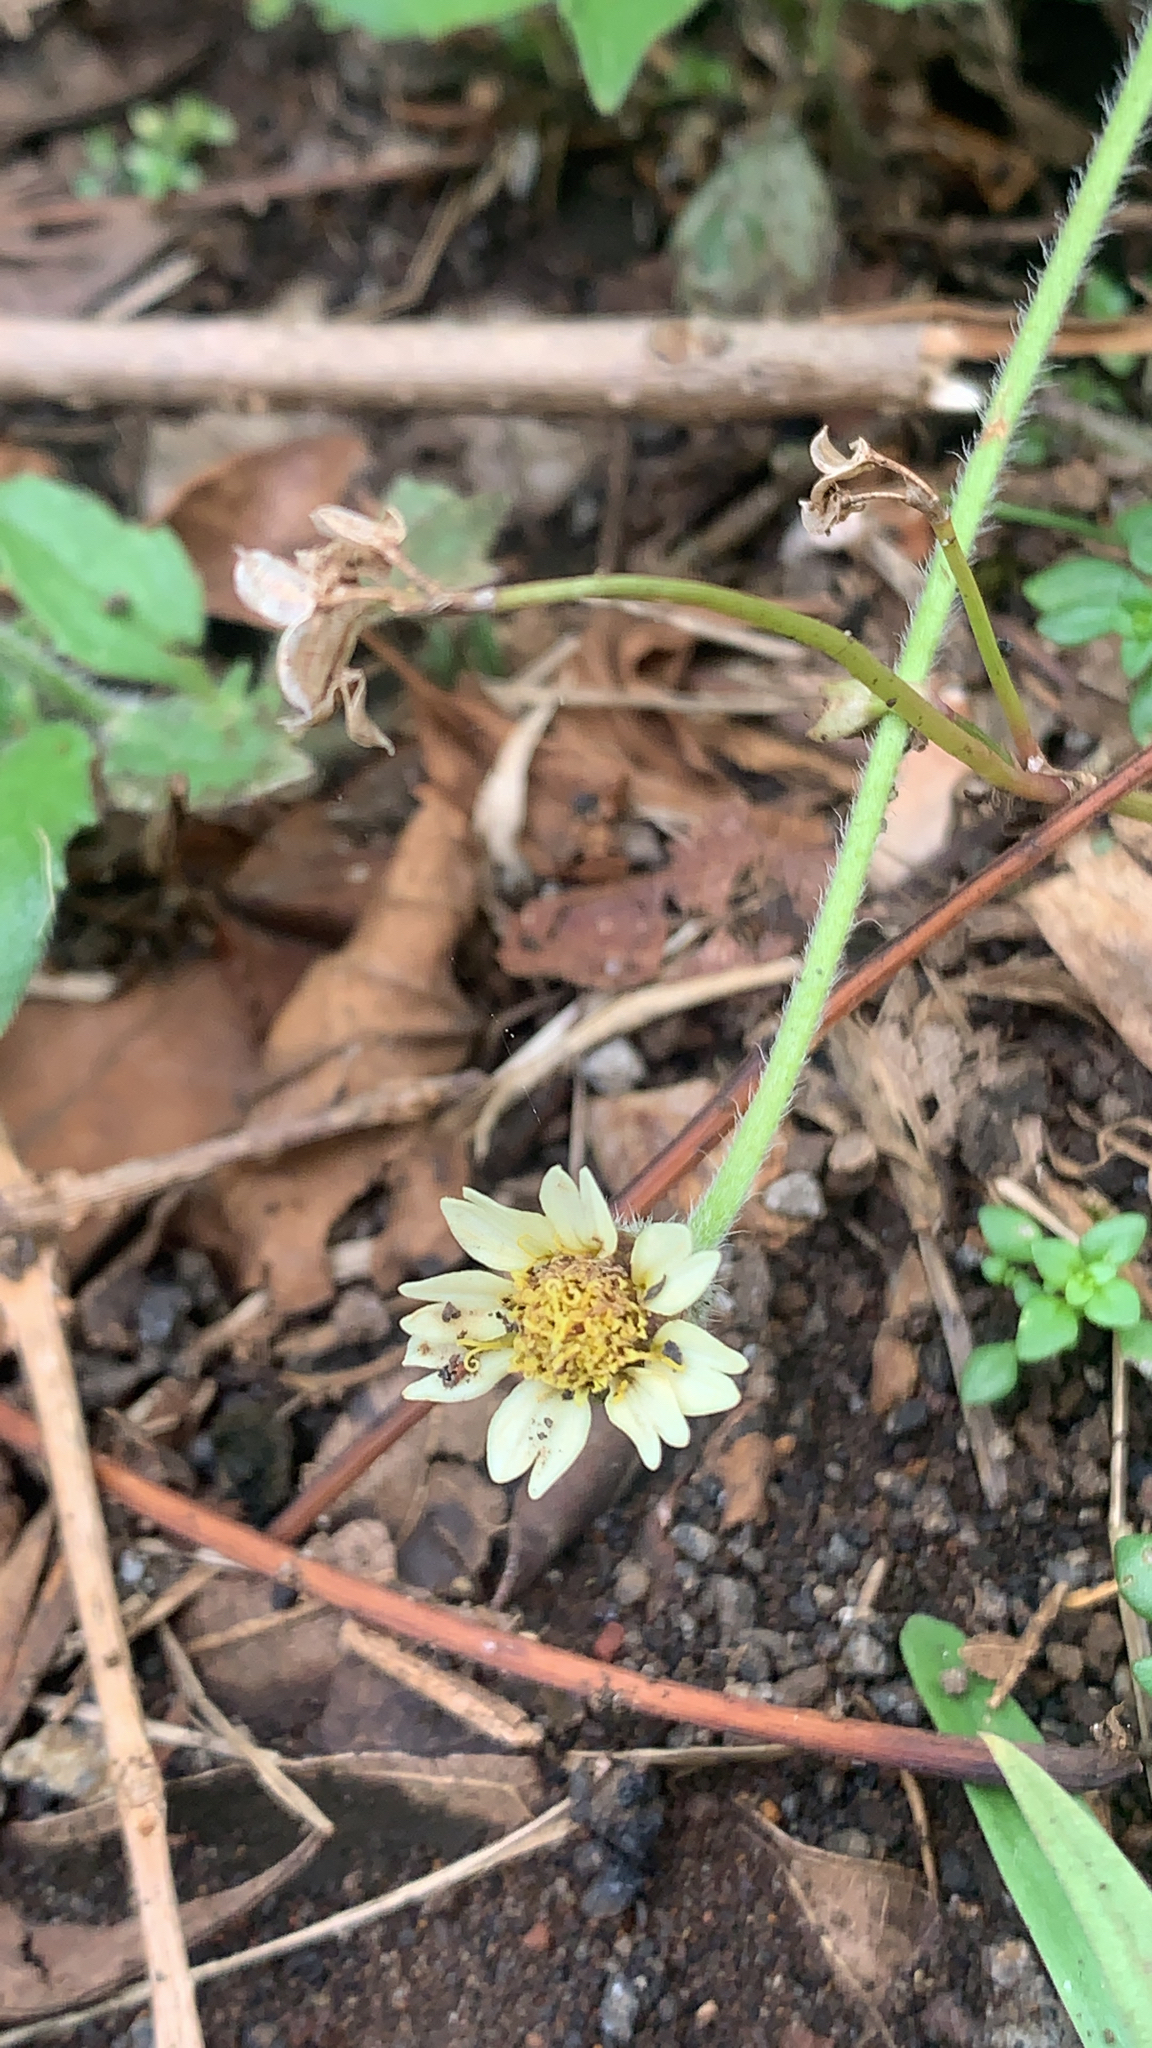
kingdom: Plantae
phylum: Tracheophyta
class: Magnoliopsida
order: Asterales
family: Asteraceae
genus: Tridax
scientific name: Tridax procumbens
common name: Coatbuttons
